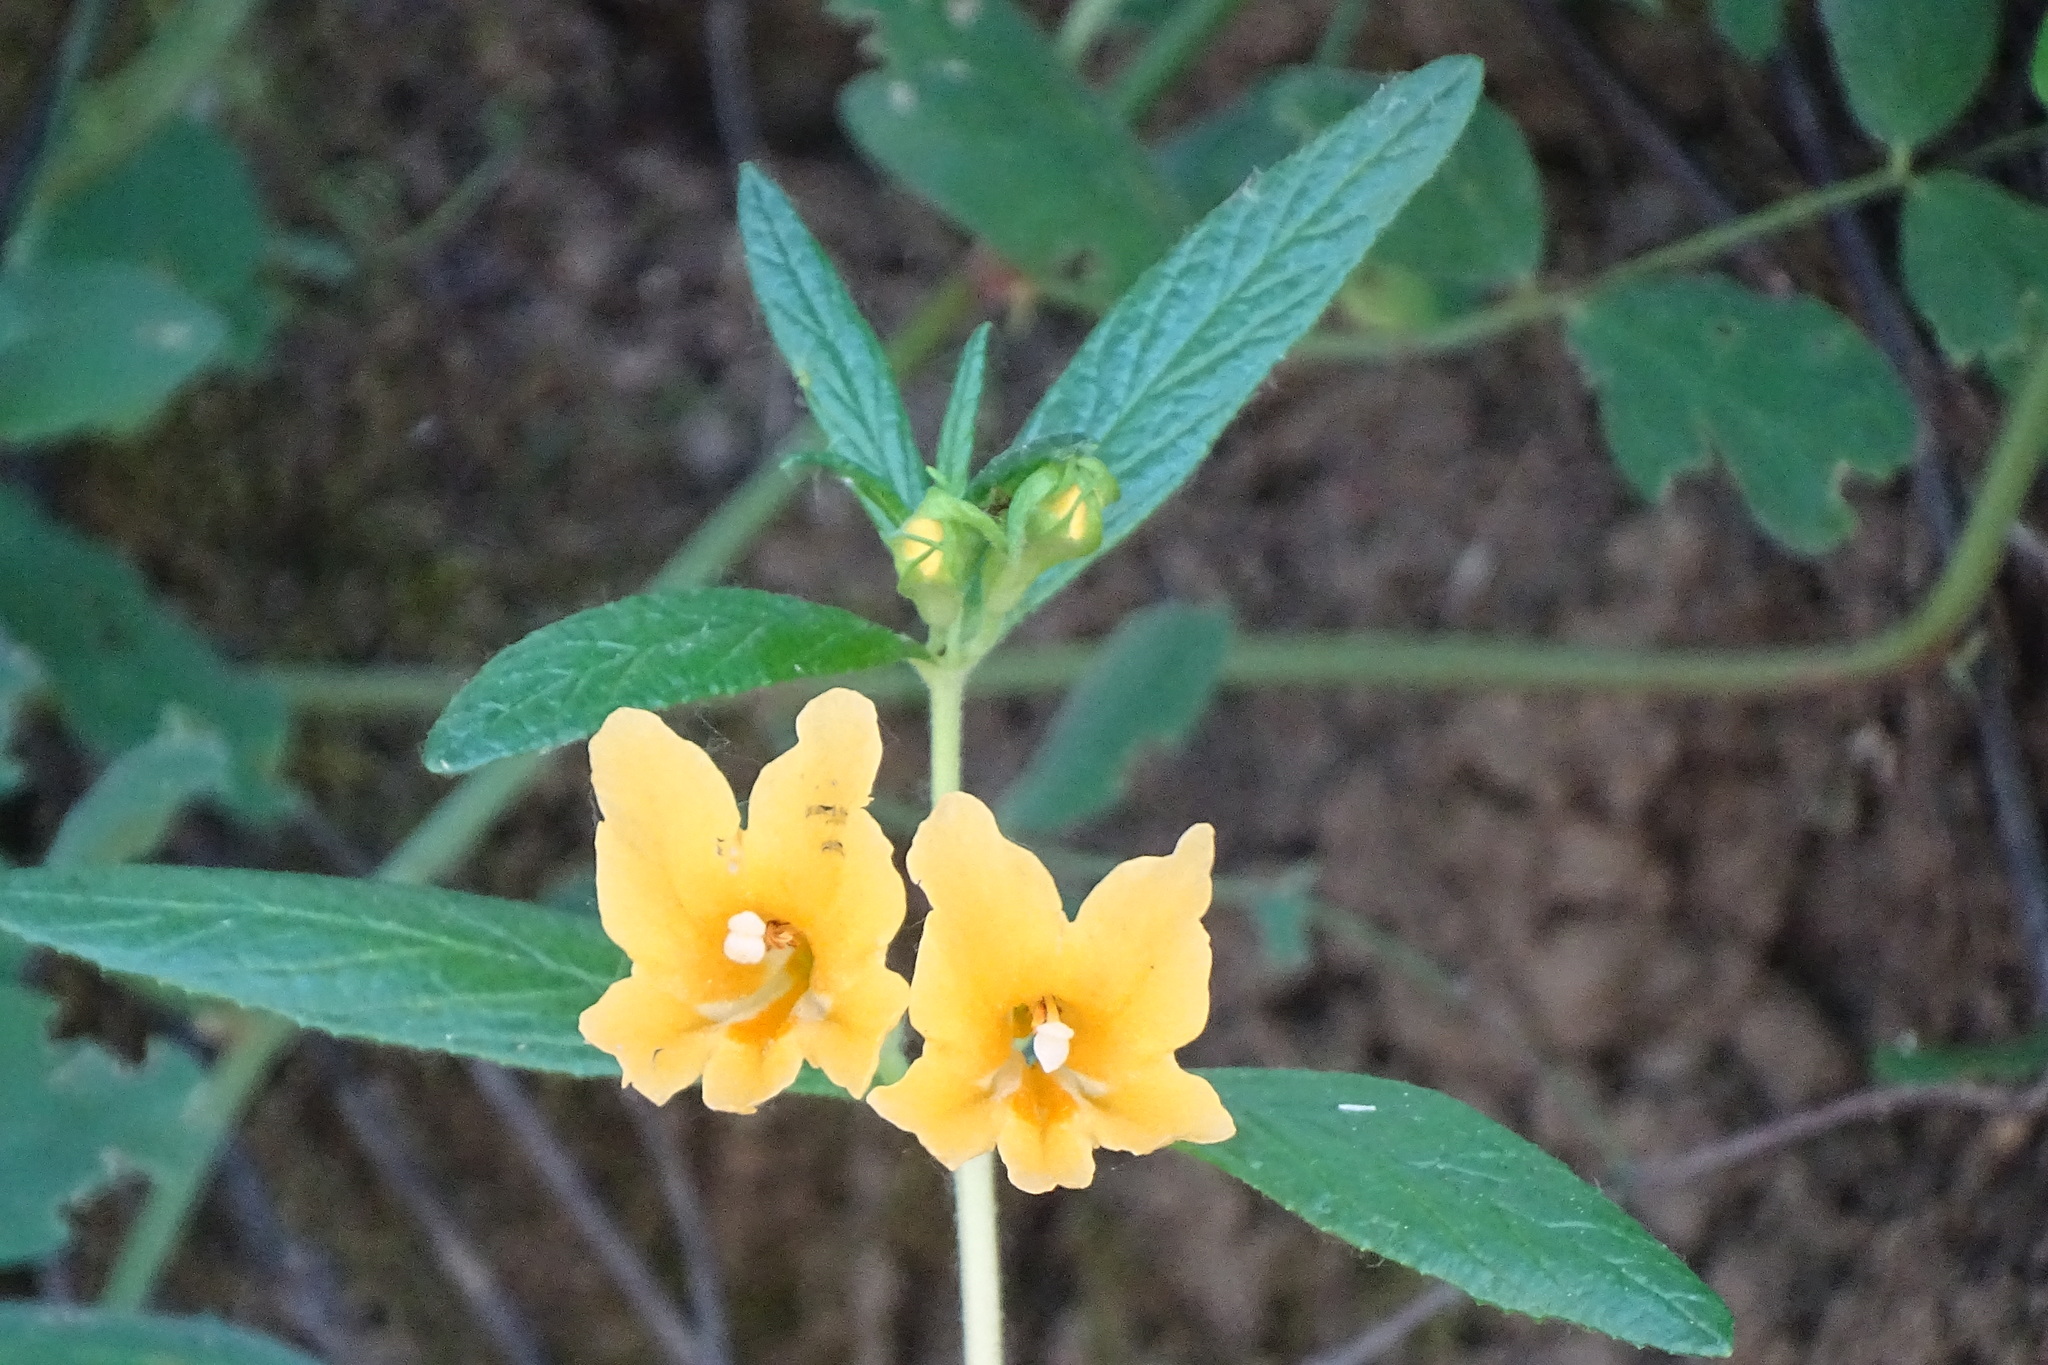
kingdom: Plantae
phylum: Tracheophyta
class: Magnoliopsida
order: Lamiales
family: Phrymaceae
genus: Diplacus
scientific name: Diplacus aurantiacus
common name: Bush monkey-flower
